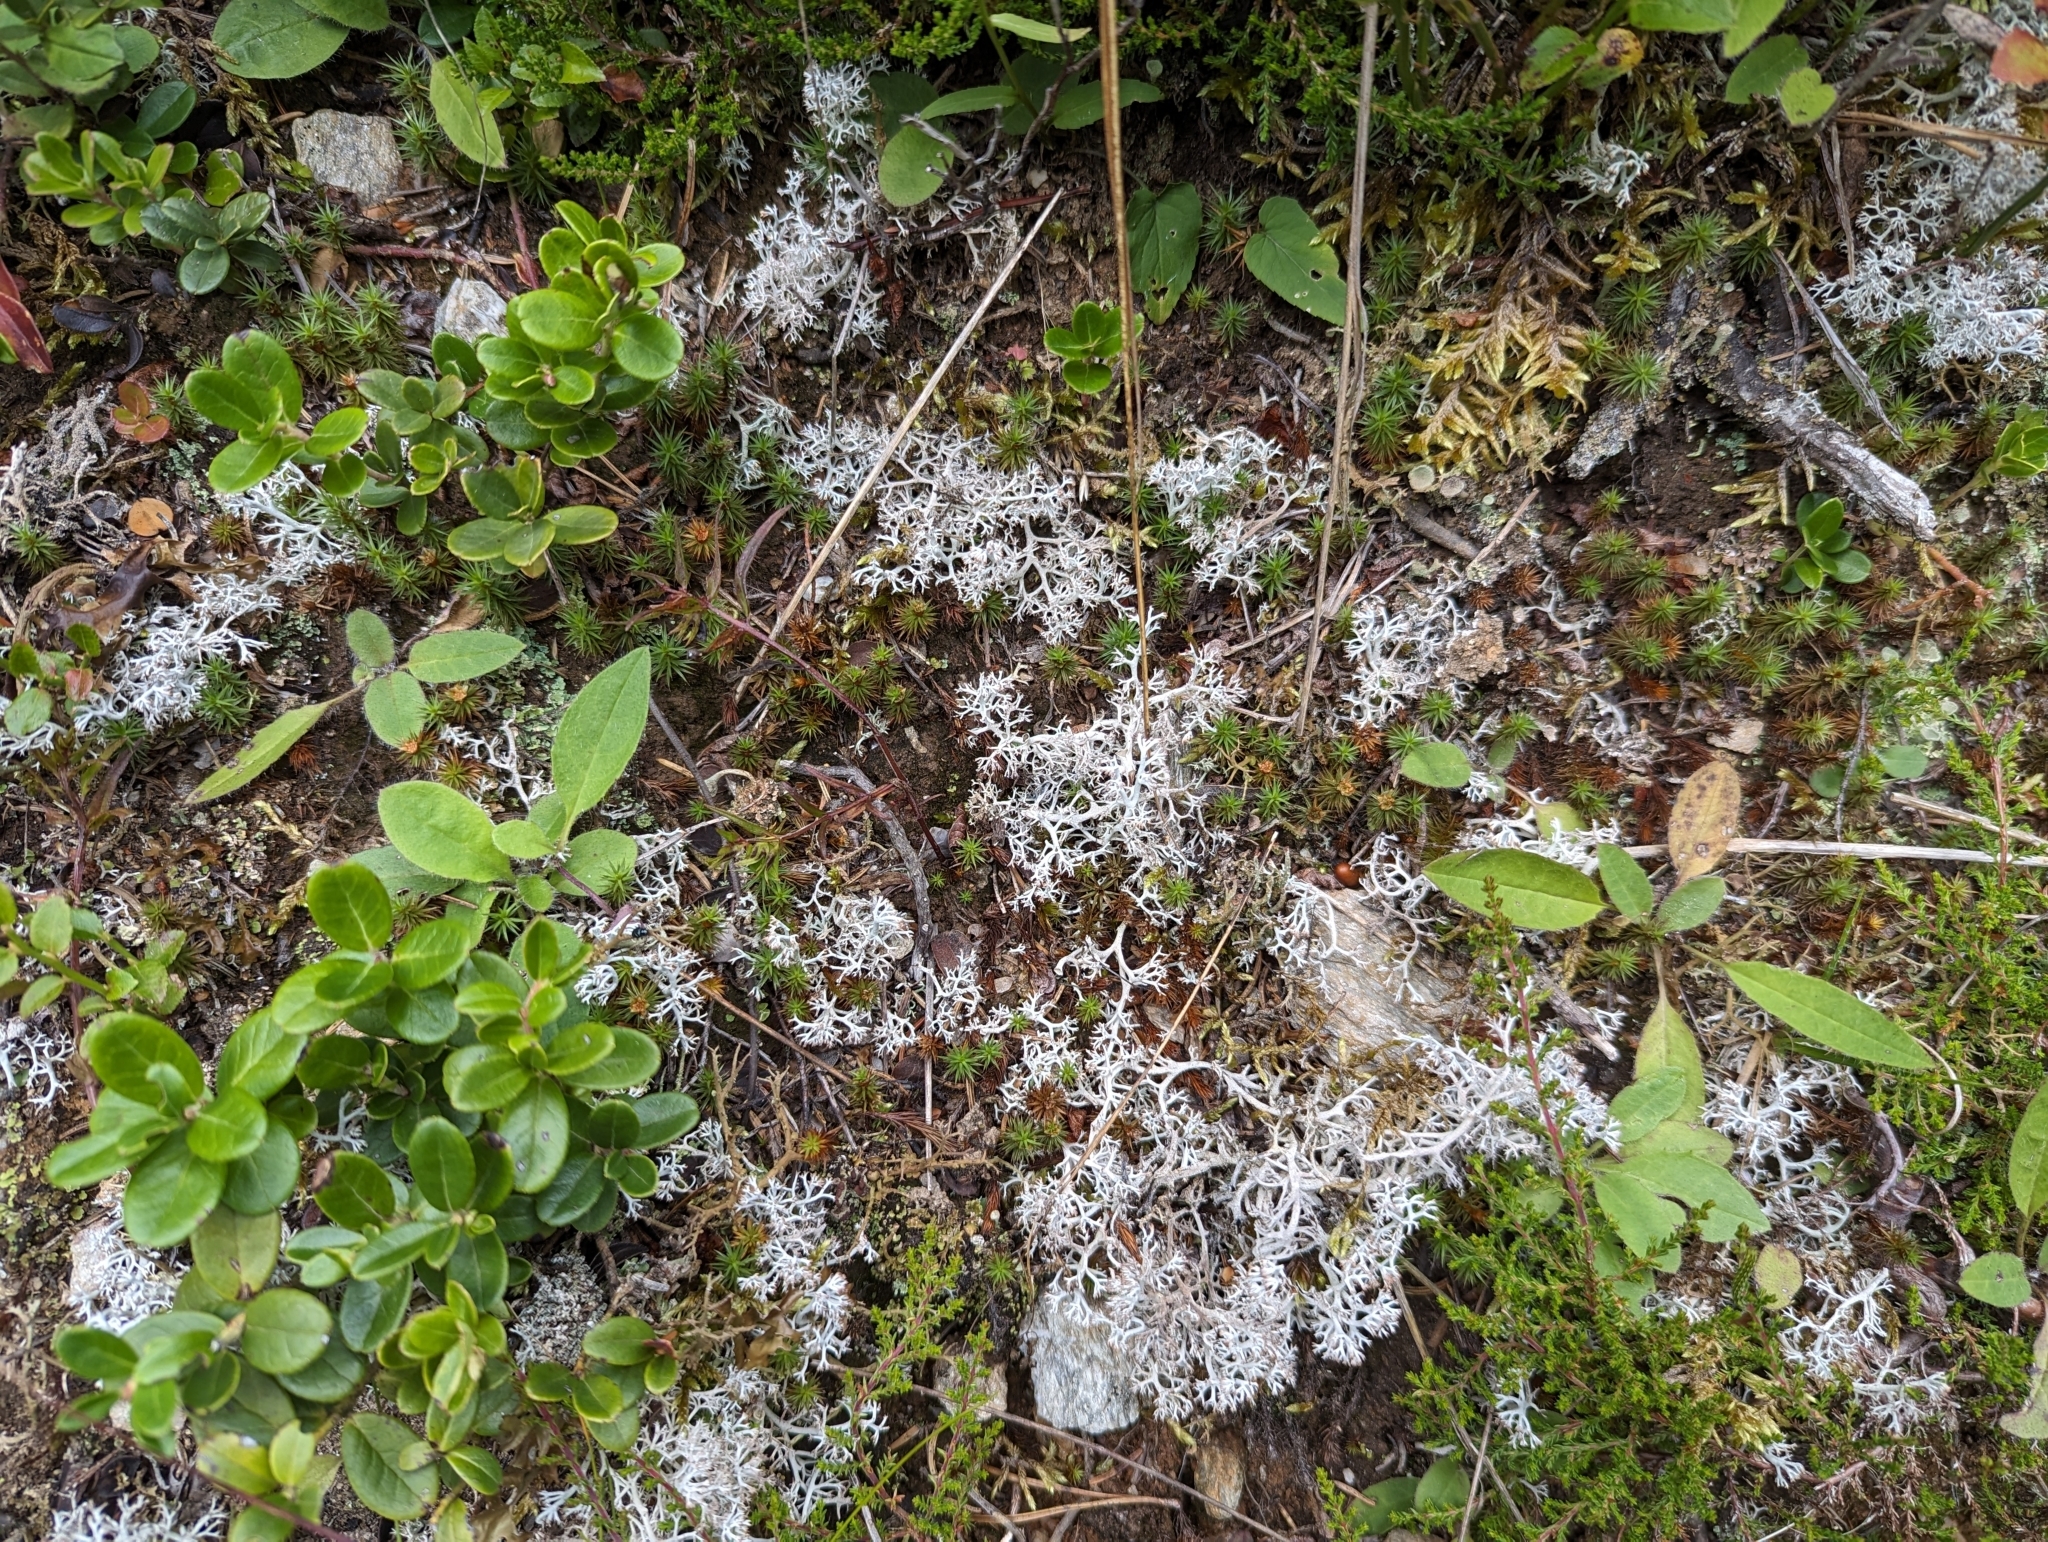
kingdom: Fungi
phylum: Ascomycota
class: Lecanoromycetes
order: Lecanorales
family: Cladoniaceae
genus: Cladonia
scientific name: Cladonia rangiferina
